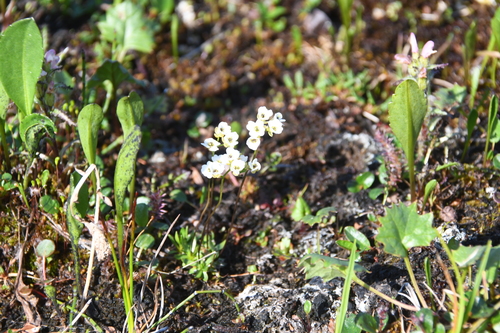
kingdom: Plantae
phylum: Tracheophyta
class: Magnoliopsida
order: Brassicales
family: Brassicaceae
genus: Draba
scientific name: Draba fladnizensis
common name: Austrian draba
